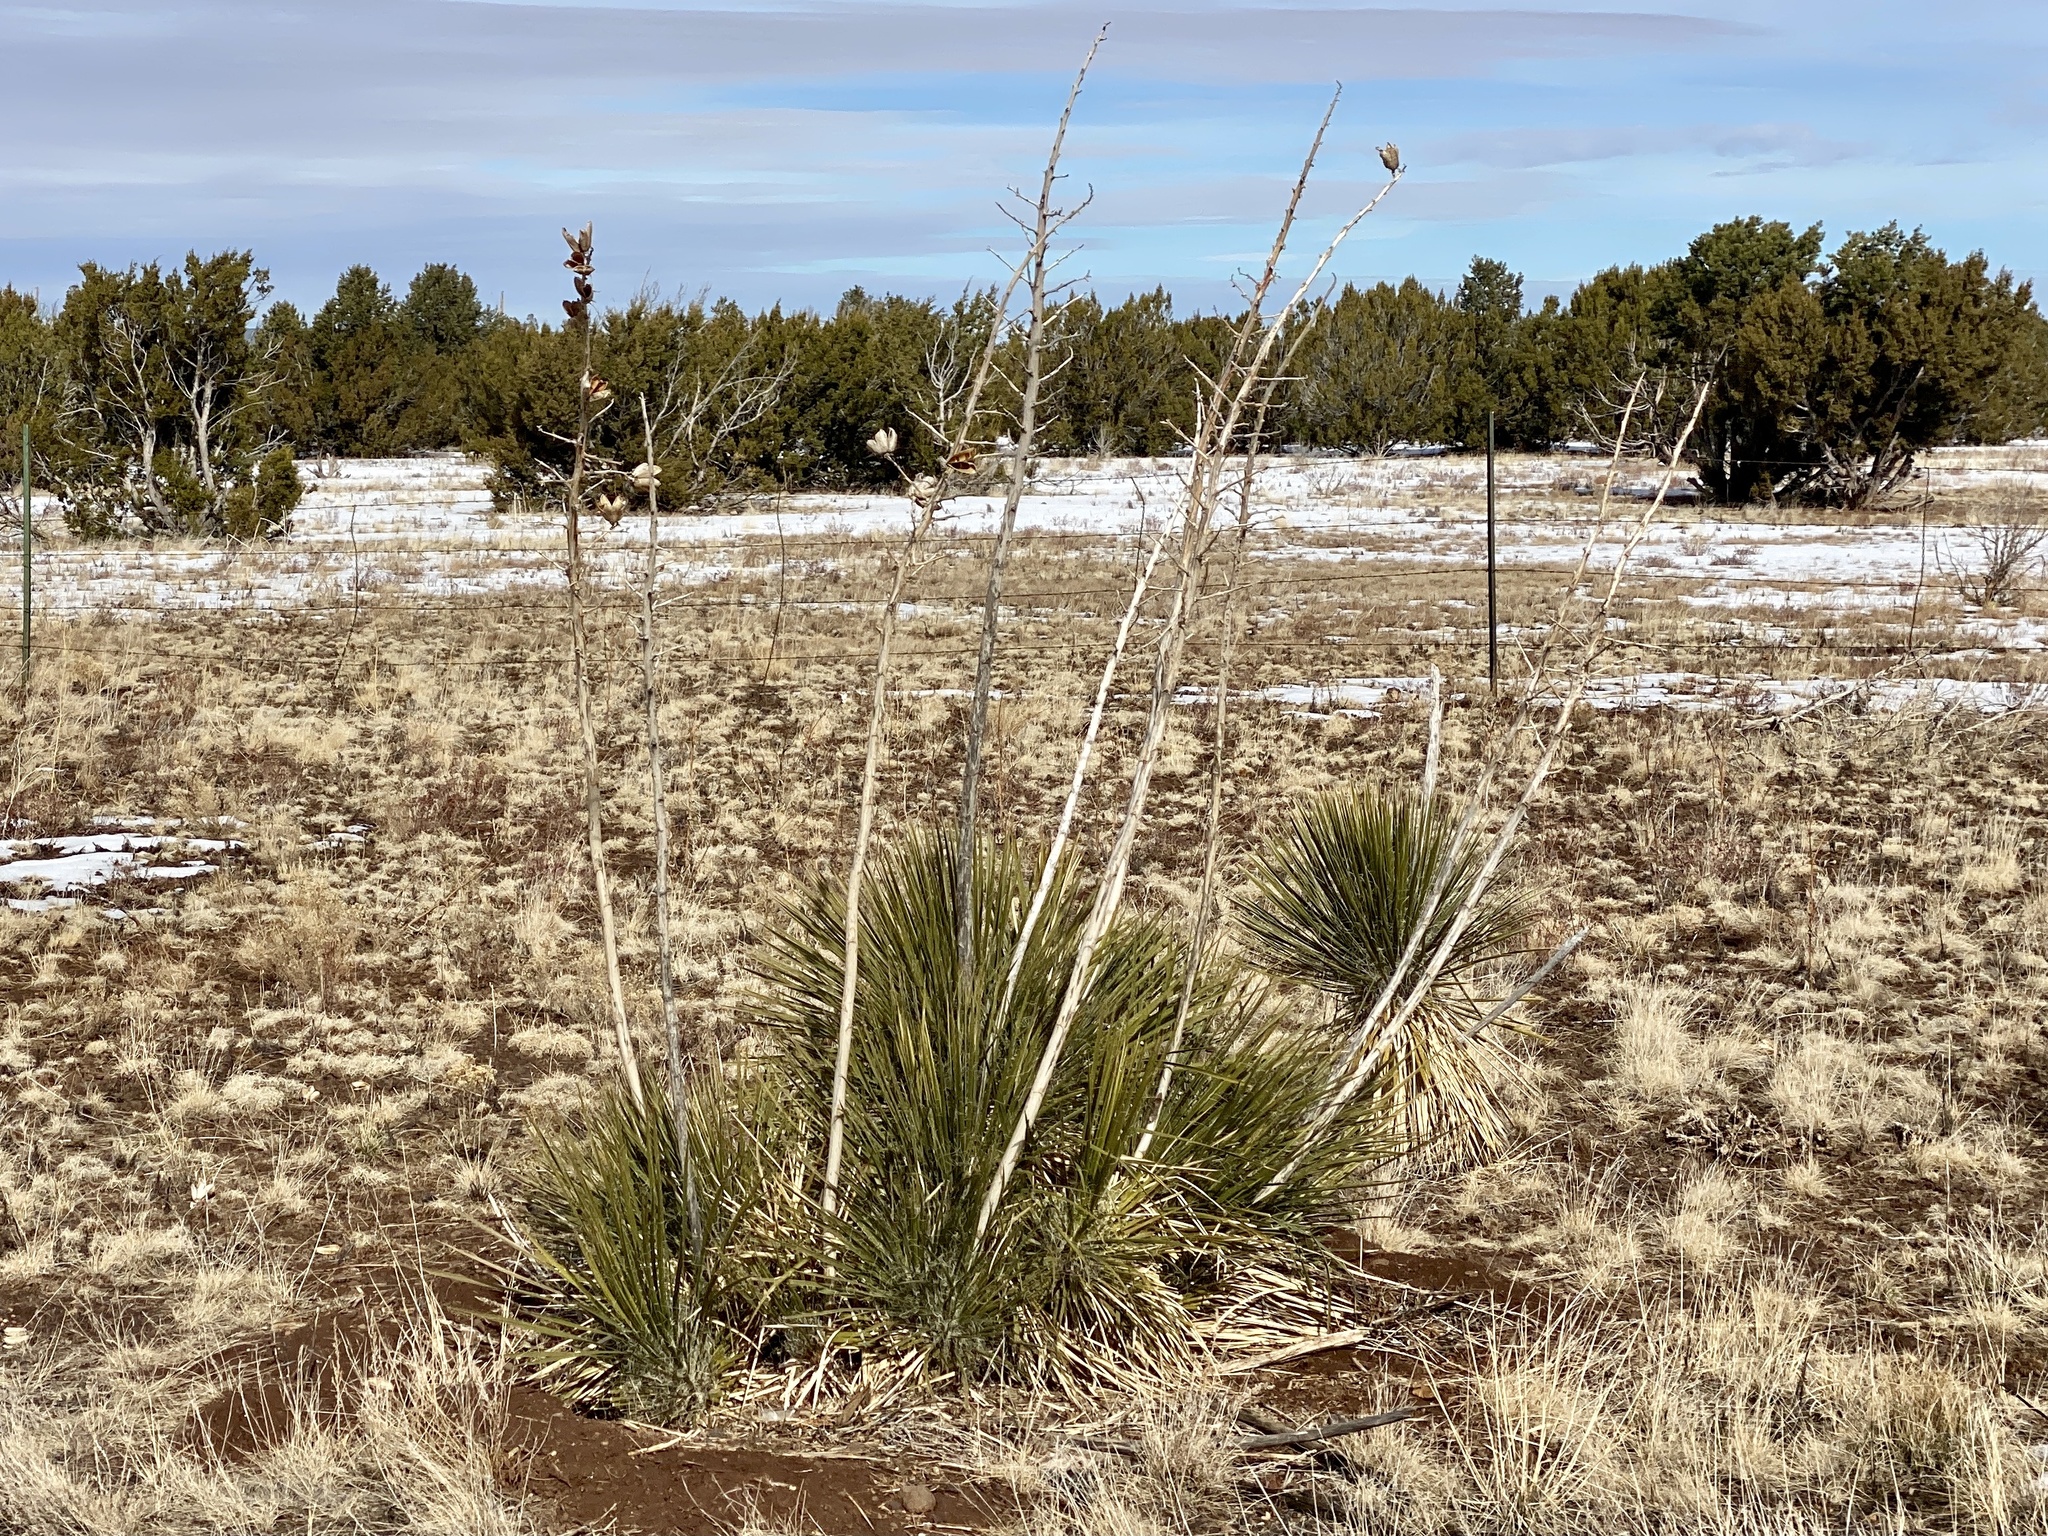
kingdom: Plantae
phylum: Tracheophyta
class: Liliopsida
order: Asparagales
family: Asparagaceae
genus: Yucca
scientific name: Yucca elata
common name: Palmella
